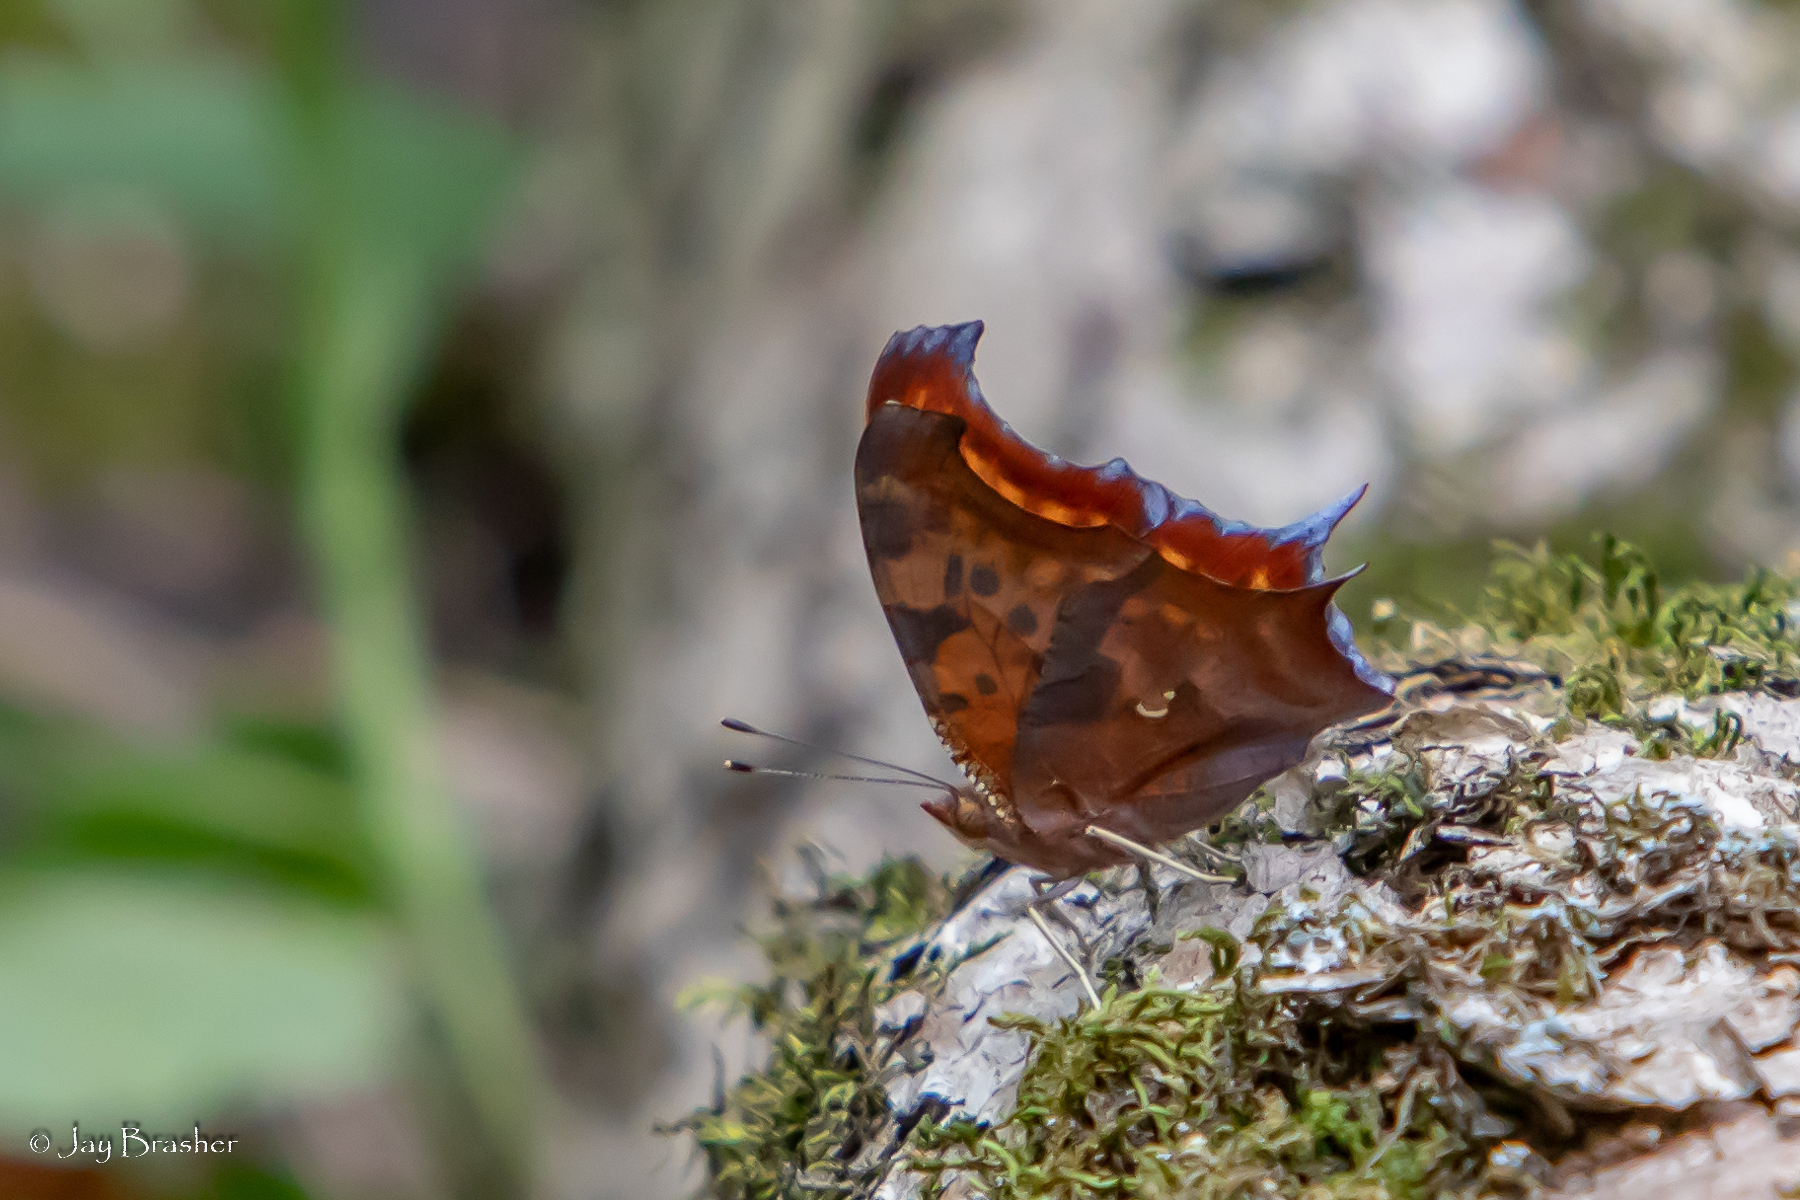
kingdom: Animalia
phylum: Arthropoda
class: Insecta
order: Lepidoptera
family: Nymphalidae
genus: Polygonia
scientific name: Polygonia interrogationis
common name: Question mark
